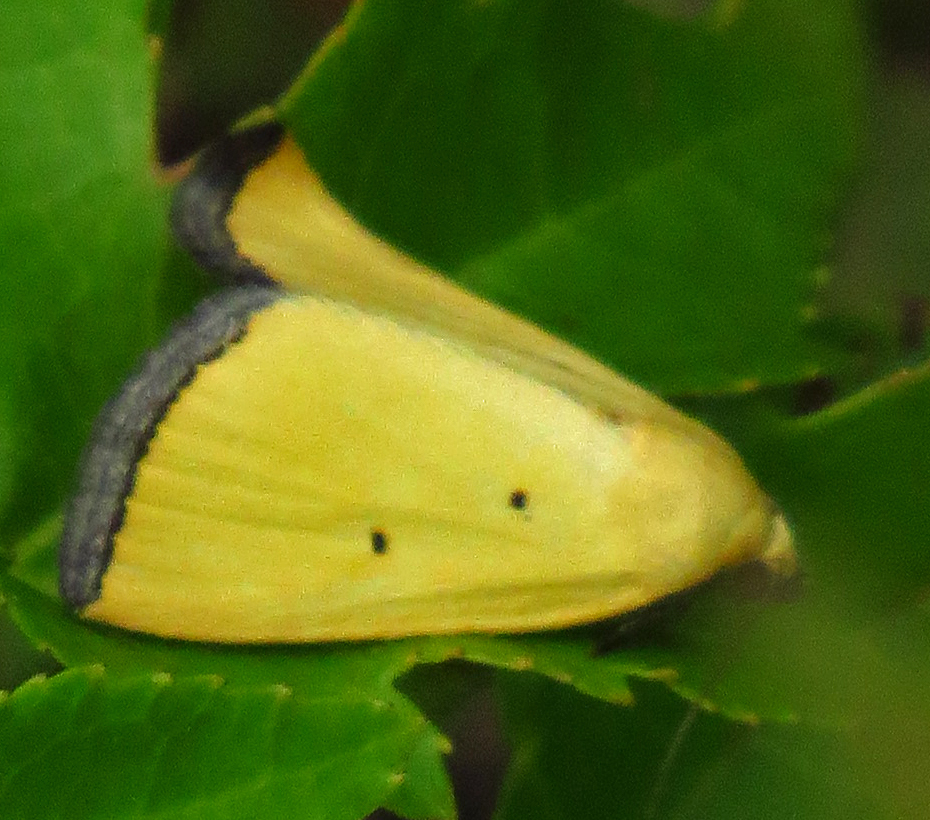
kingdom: Animalia
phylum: Arthropoda
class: Insecta
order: Lepidoptera
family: Noctuidae
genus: Marimatha
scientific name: Marimatha nigrofimbria
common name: Black-bordered lemon moth
